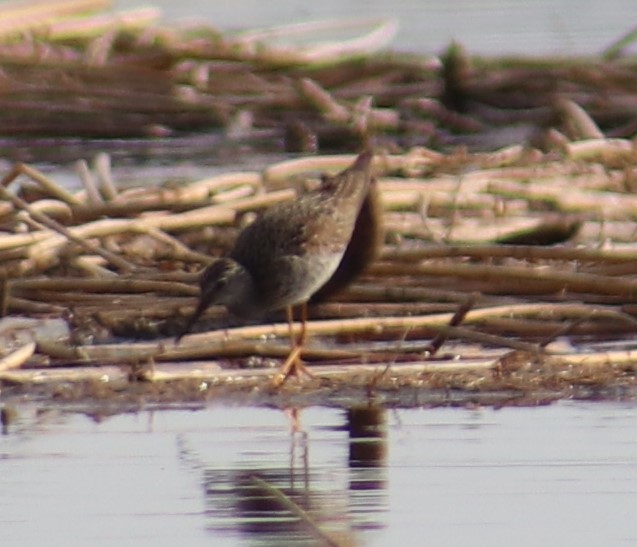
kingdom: Animalia
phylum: Chordata
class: Aves
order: Charadriiformes
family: Scolopacidae
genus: Tringa
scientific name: Tringa flavipes
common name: Lesser yellowlegs
